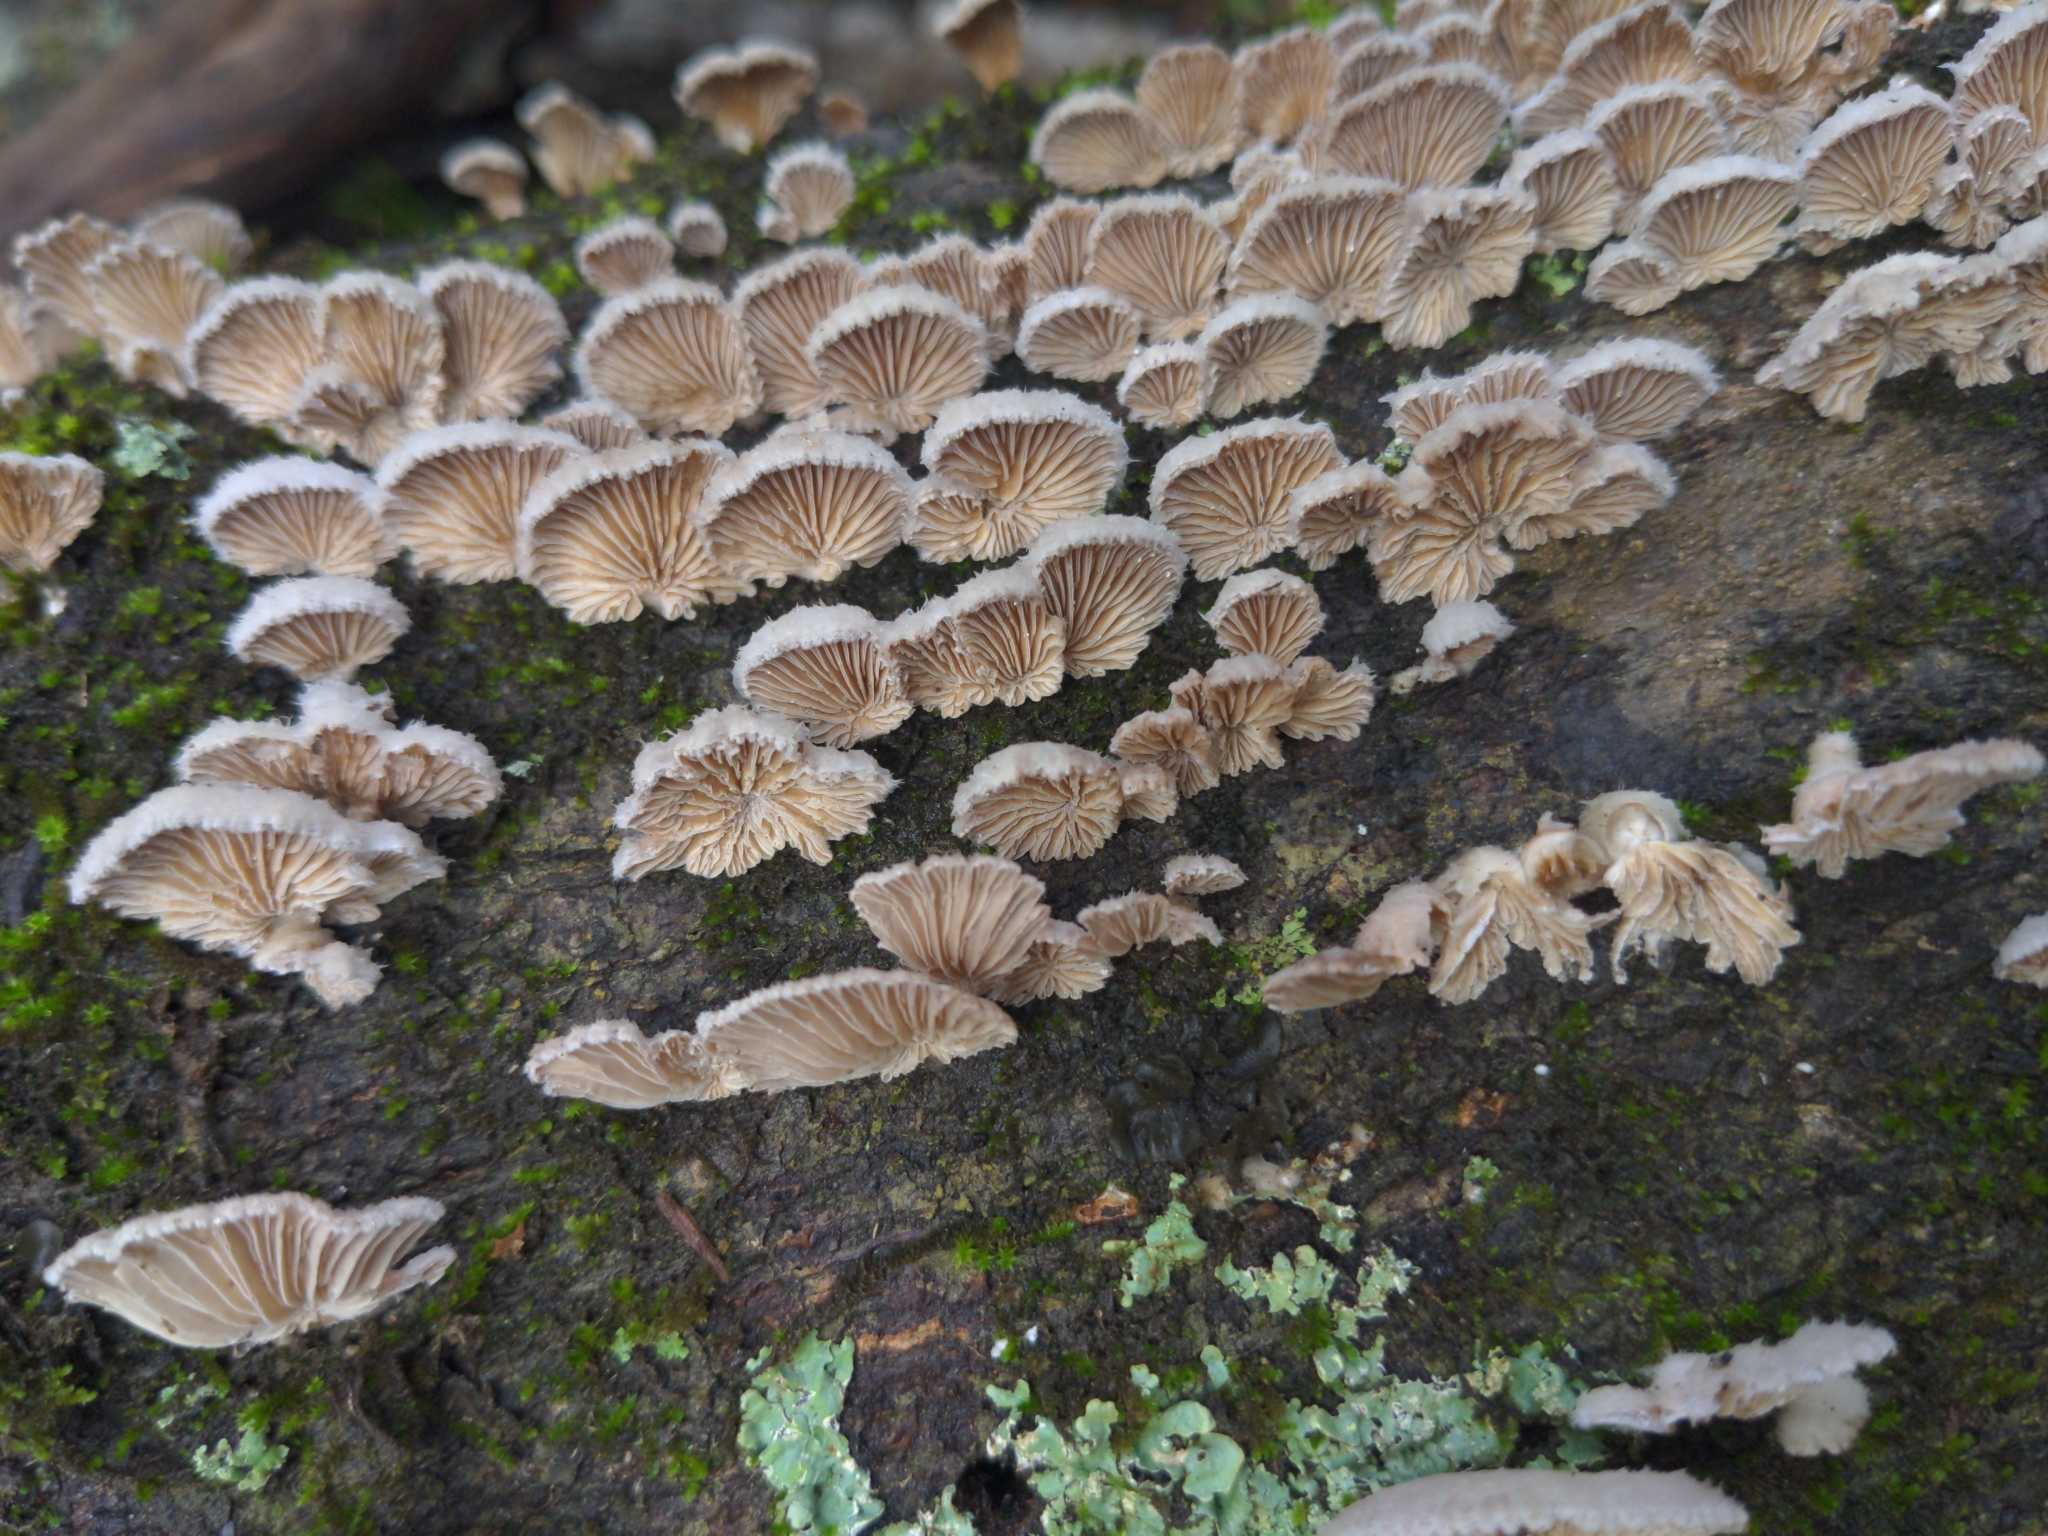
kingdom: Fungi
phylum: Basidiomycota
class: Agaricomycetes
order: Agaricales
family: Schizophyllaceae
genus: Schizophyllum
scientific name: Schizophyllum commune
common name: Common porecrust
